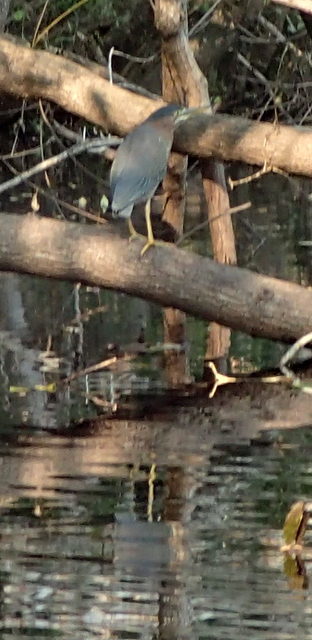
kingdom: Animalia
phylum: Chordata
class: Aves
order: Pelecaniformes
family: Ardeidae
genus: Butorides
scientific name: Butorides virescens
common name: Green heron
